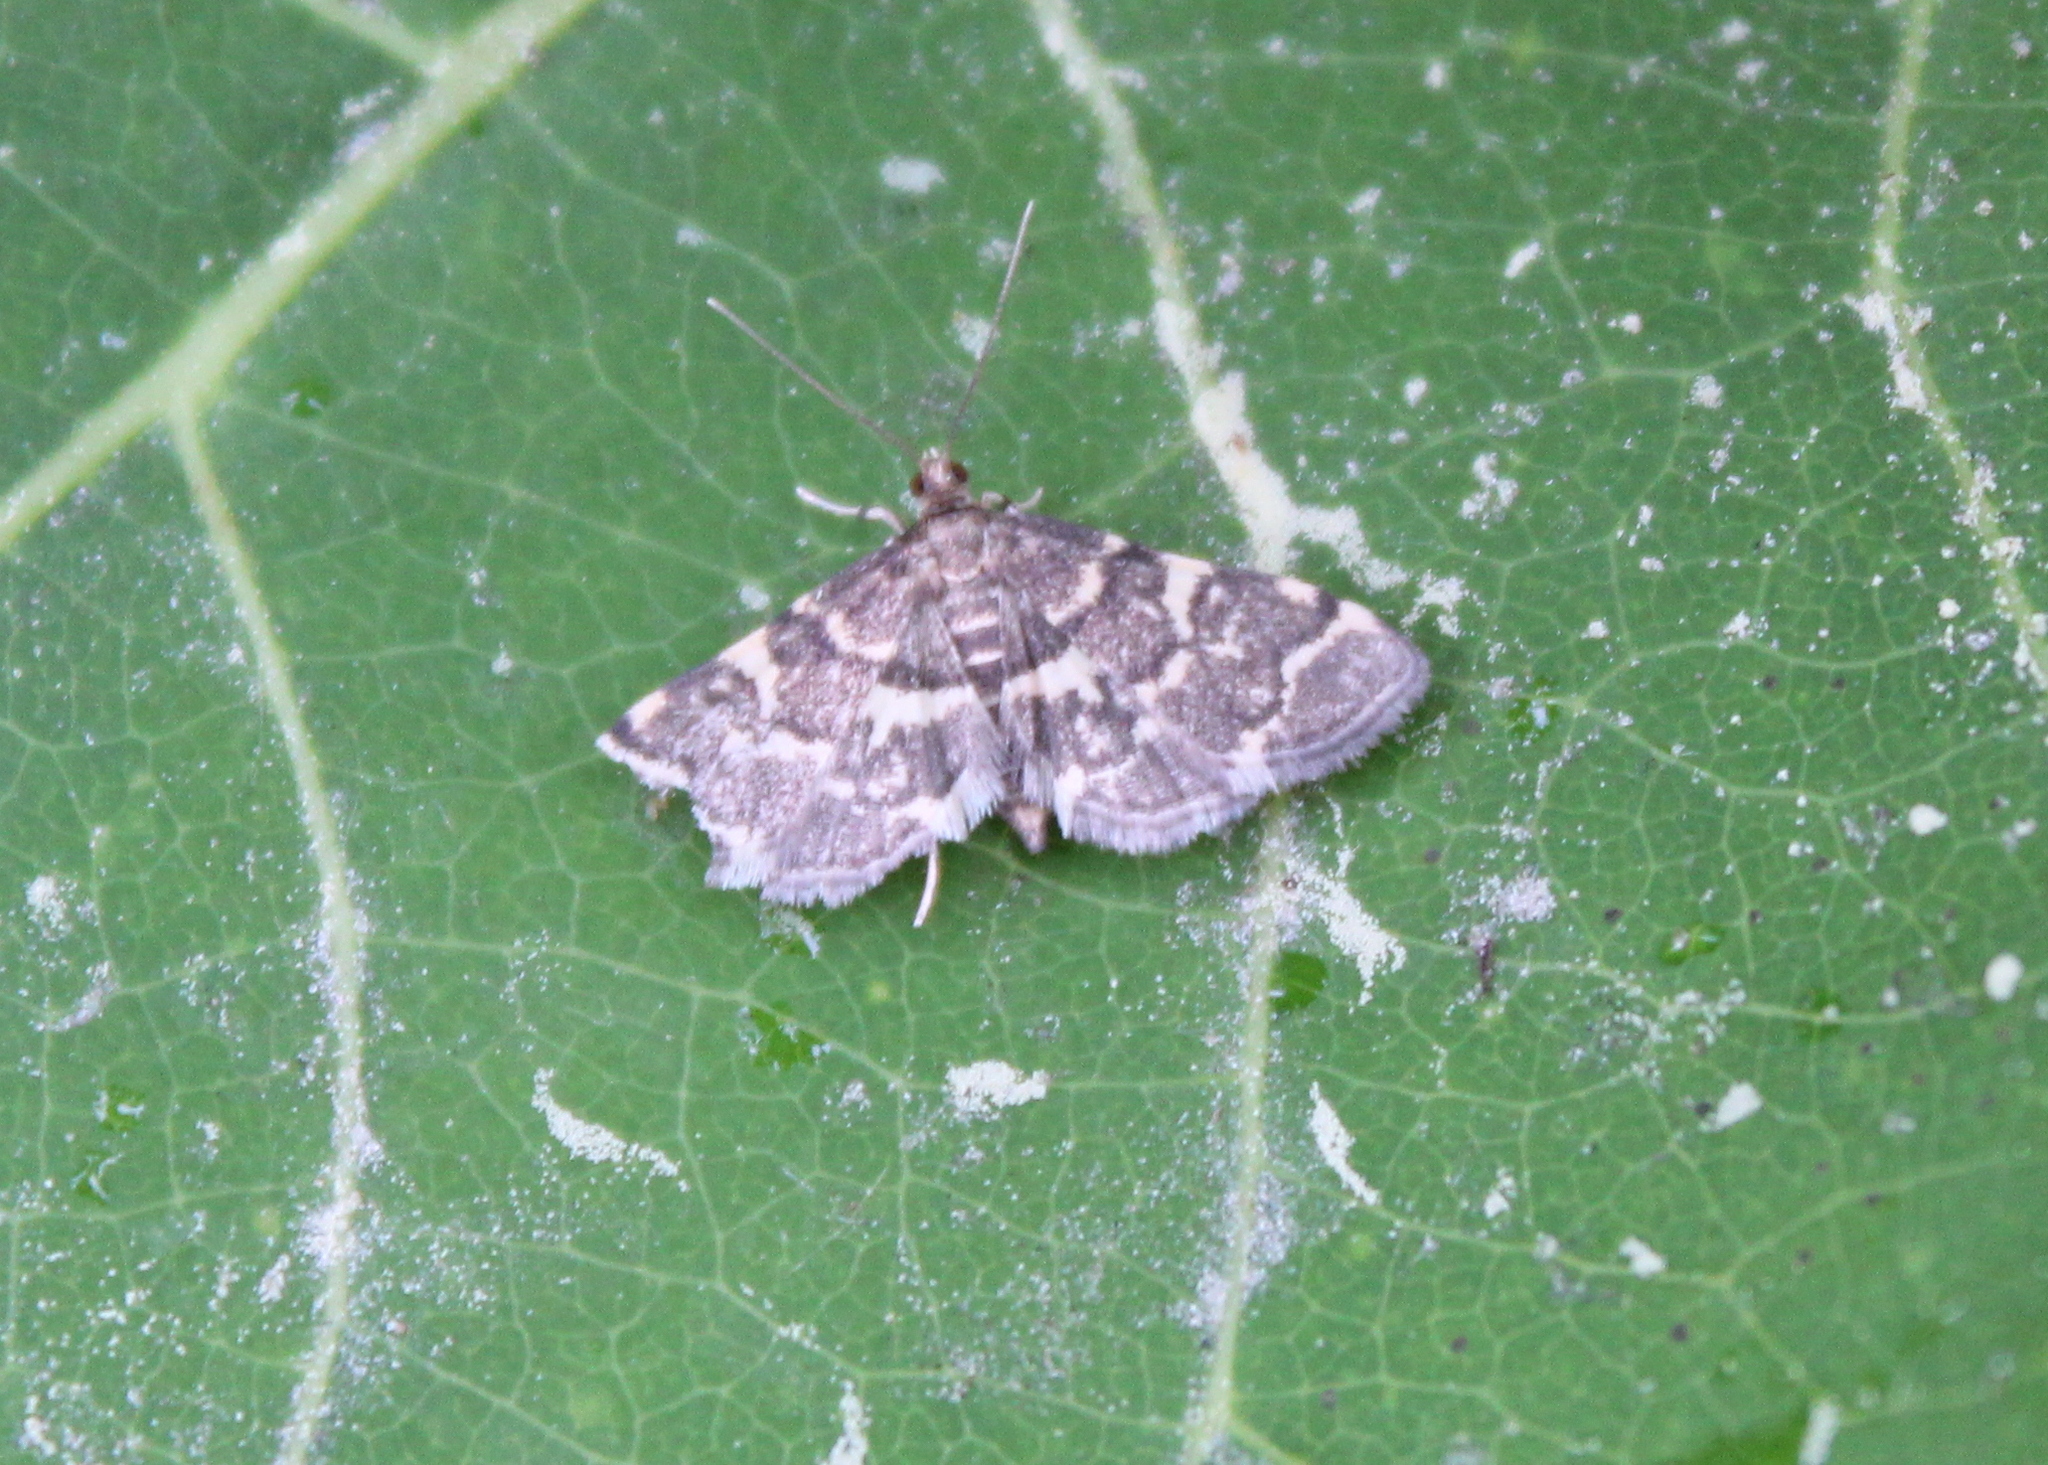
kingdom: Animalia
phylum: Arthropoda
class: Insecta
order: Lepidoptera
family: Crambidae
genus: Anageshna
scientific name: Anageshna primordialis
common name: Yellow-spotted webworm moth
